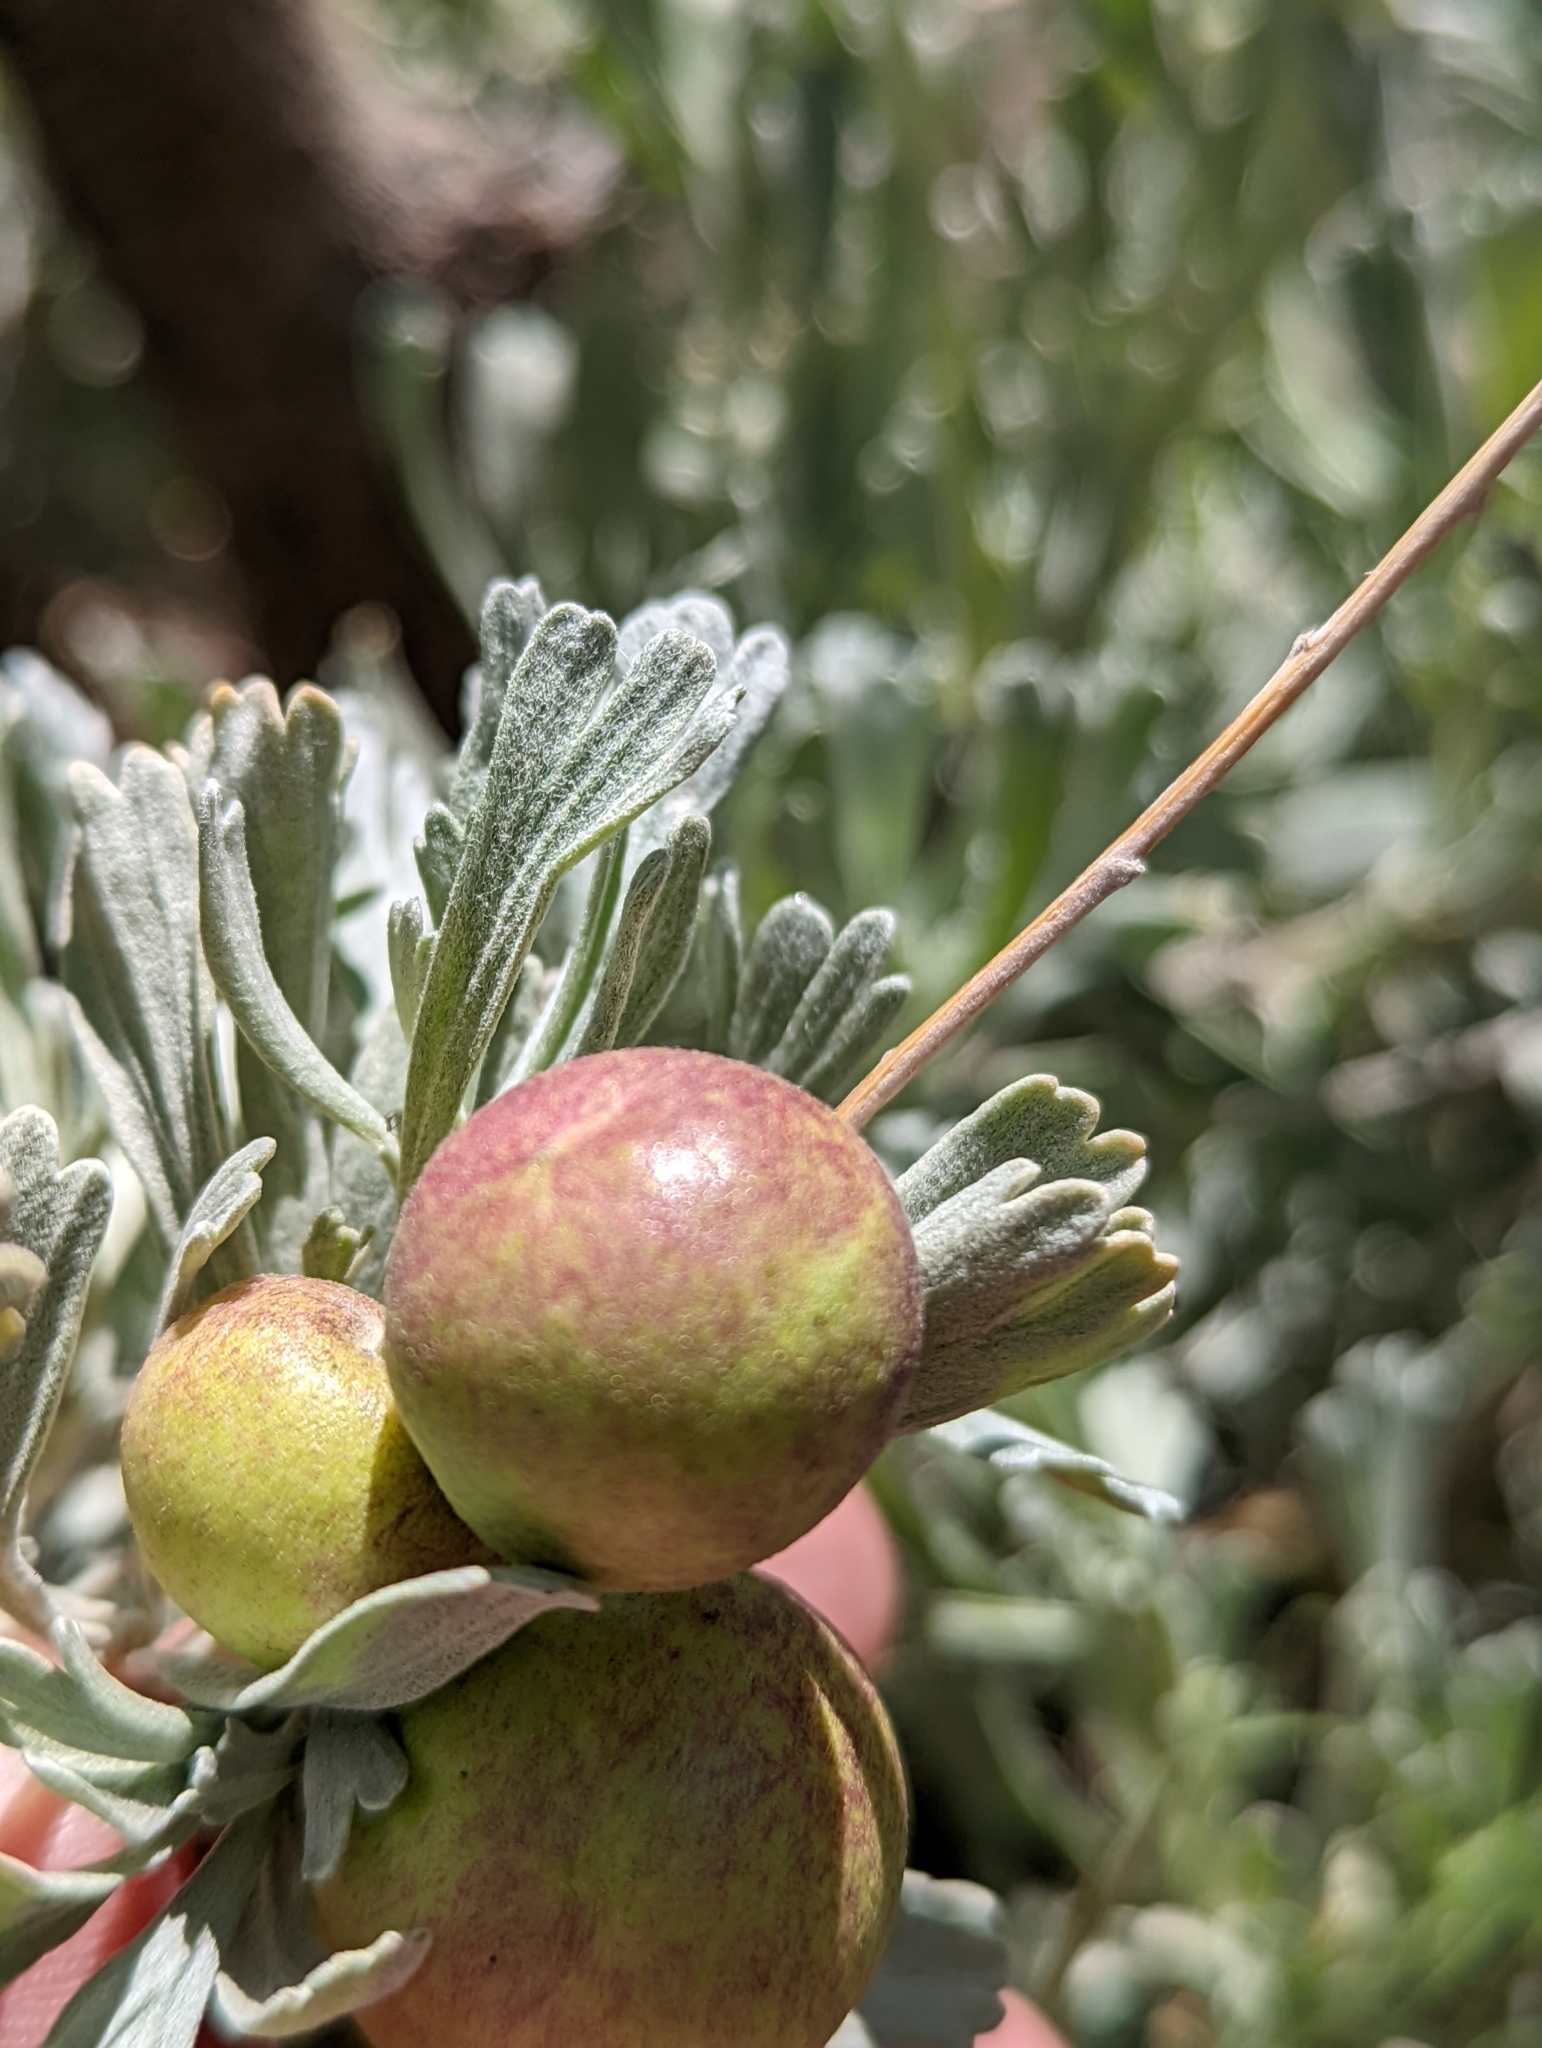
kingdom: Plantae
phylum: Tracheophyta
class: Magnoliopsida
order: Asterales
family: Asteraceae
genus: Artemisia
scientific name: Artemisia tridentata
